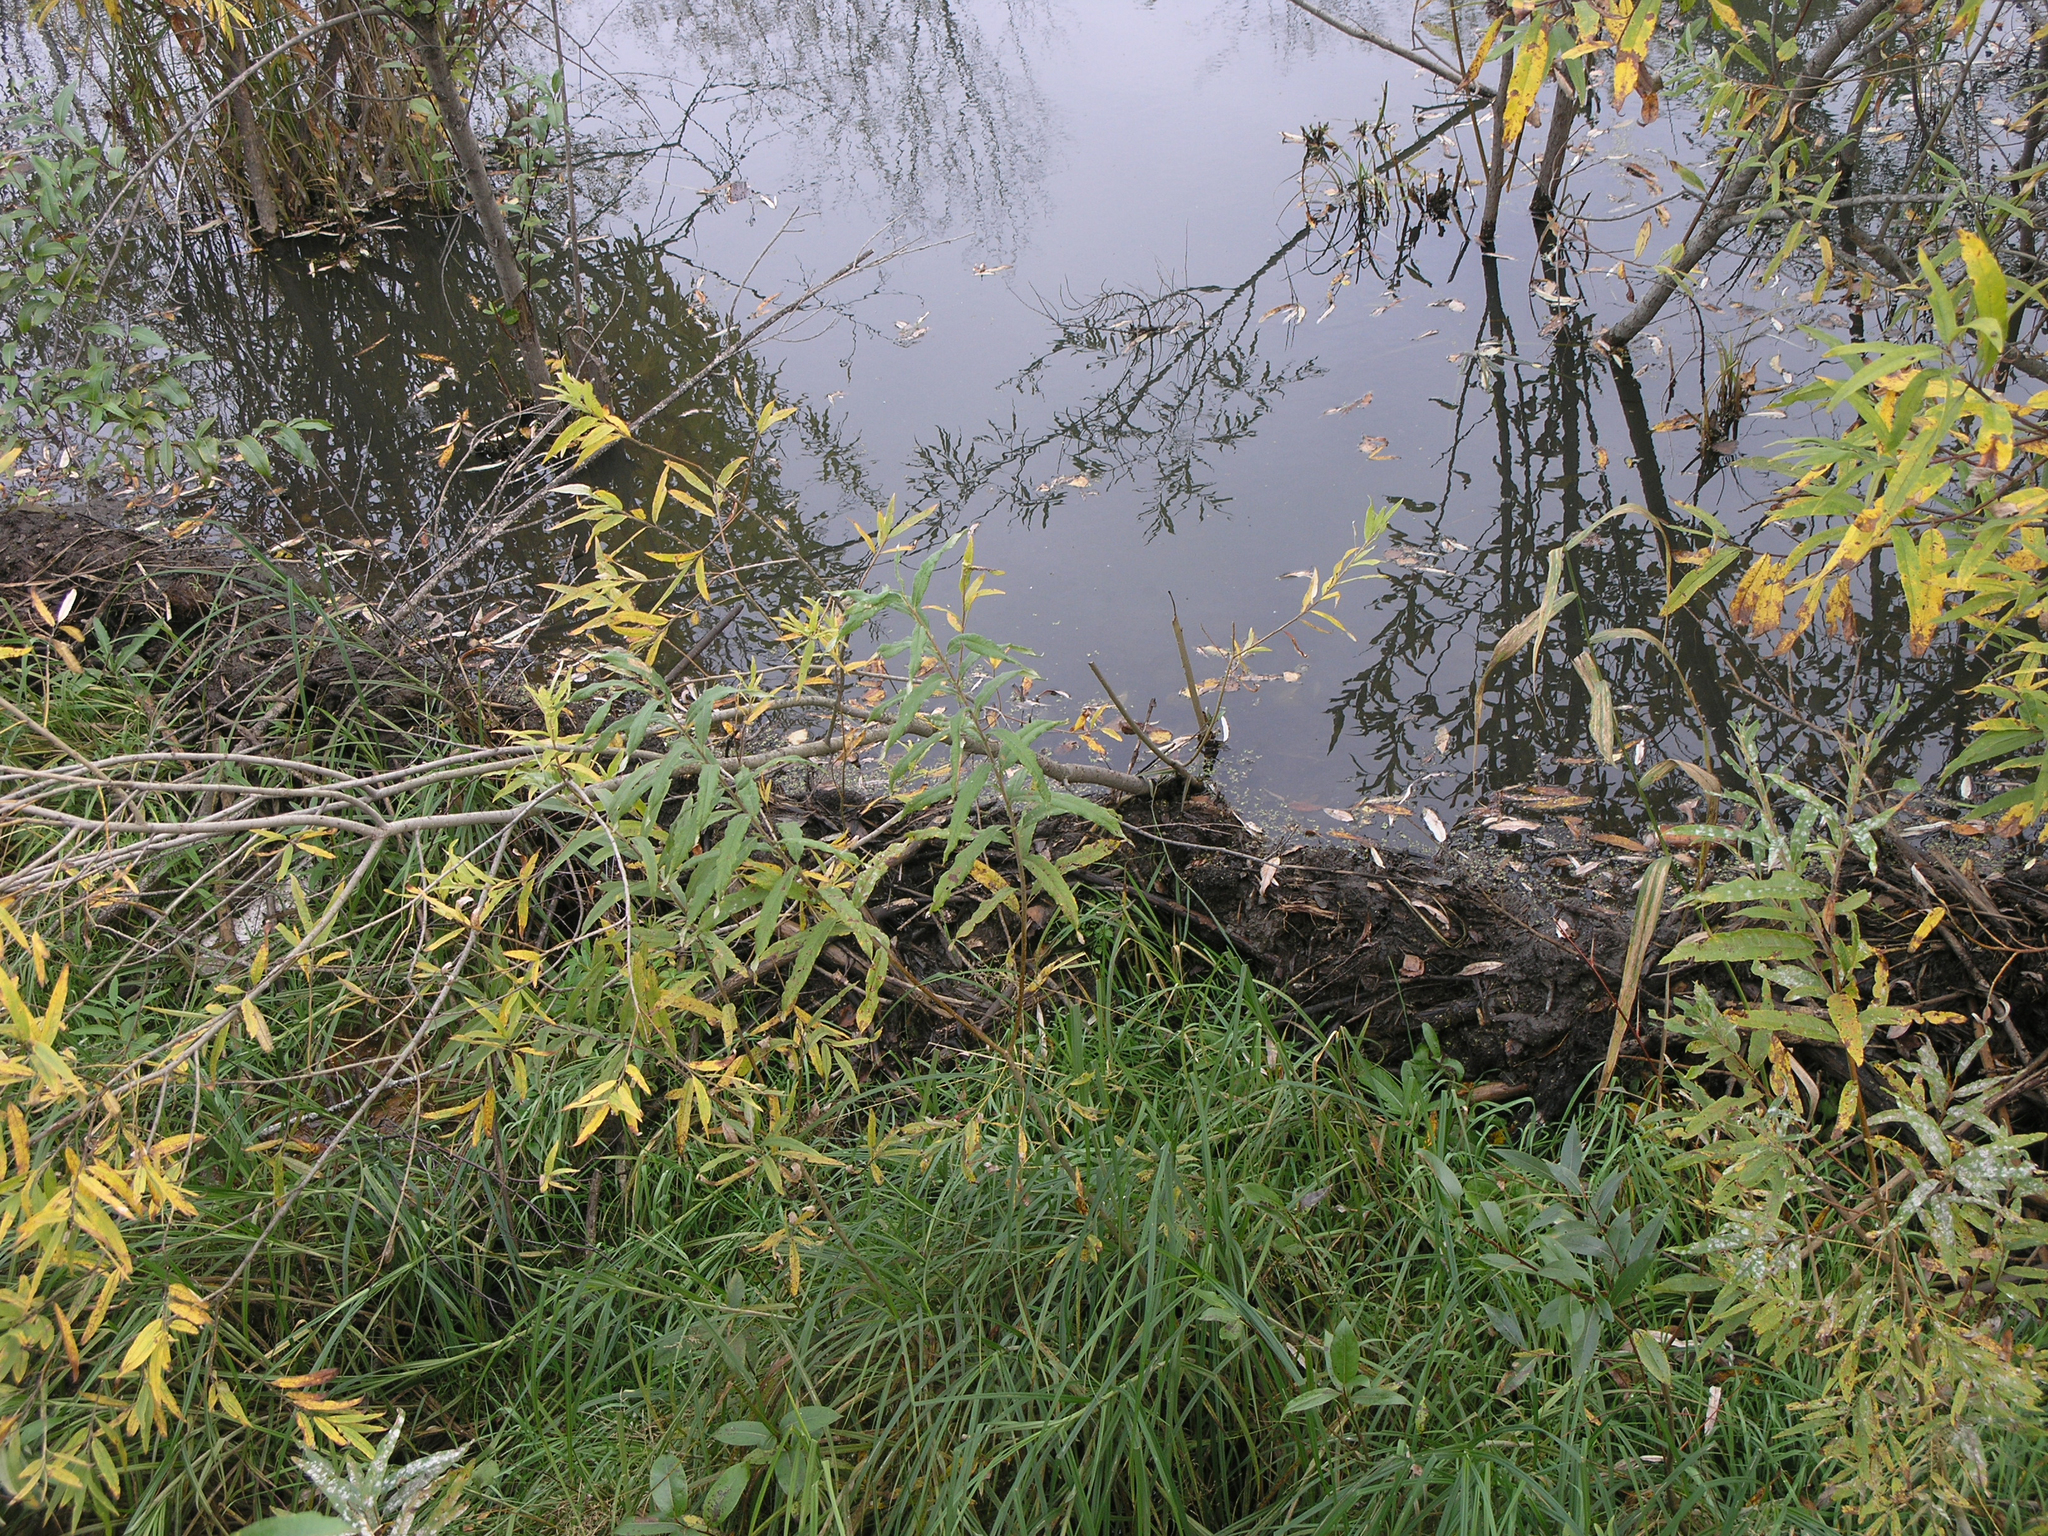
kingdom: Animalia
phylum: Chordata
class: Mammalia
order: Rodentia
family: Castoridae
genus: Castor
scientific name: Castor fiber
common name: Eurasian beaver
